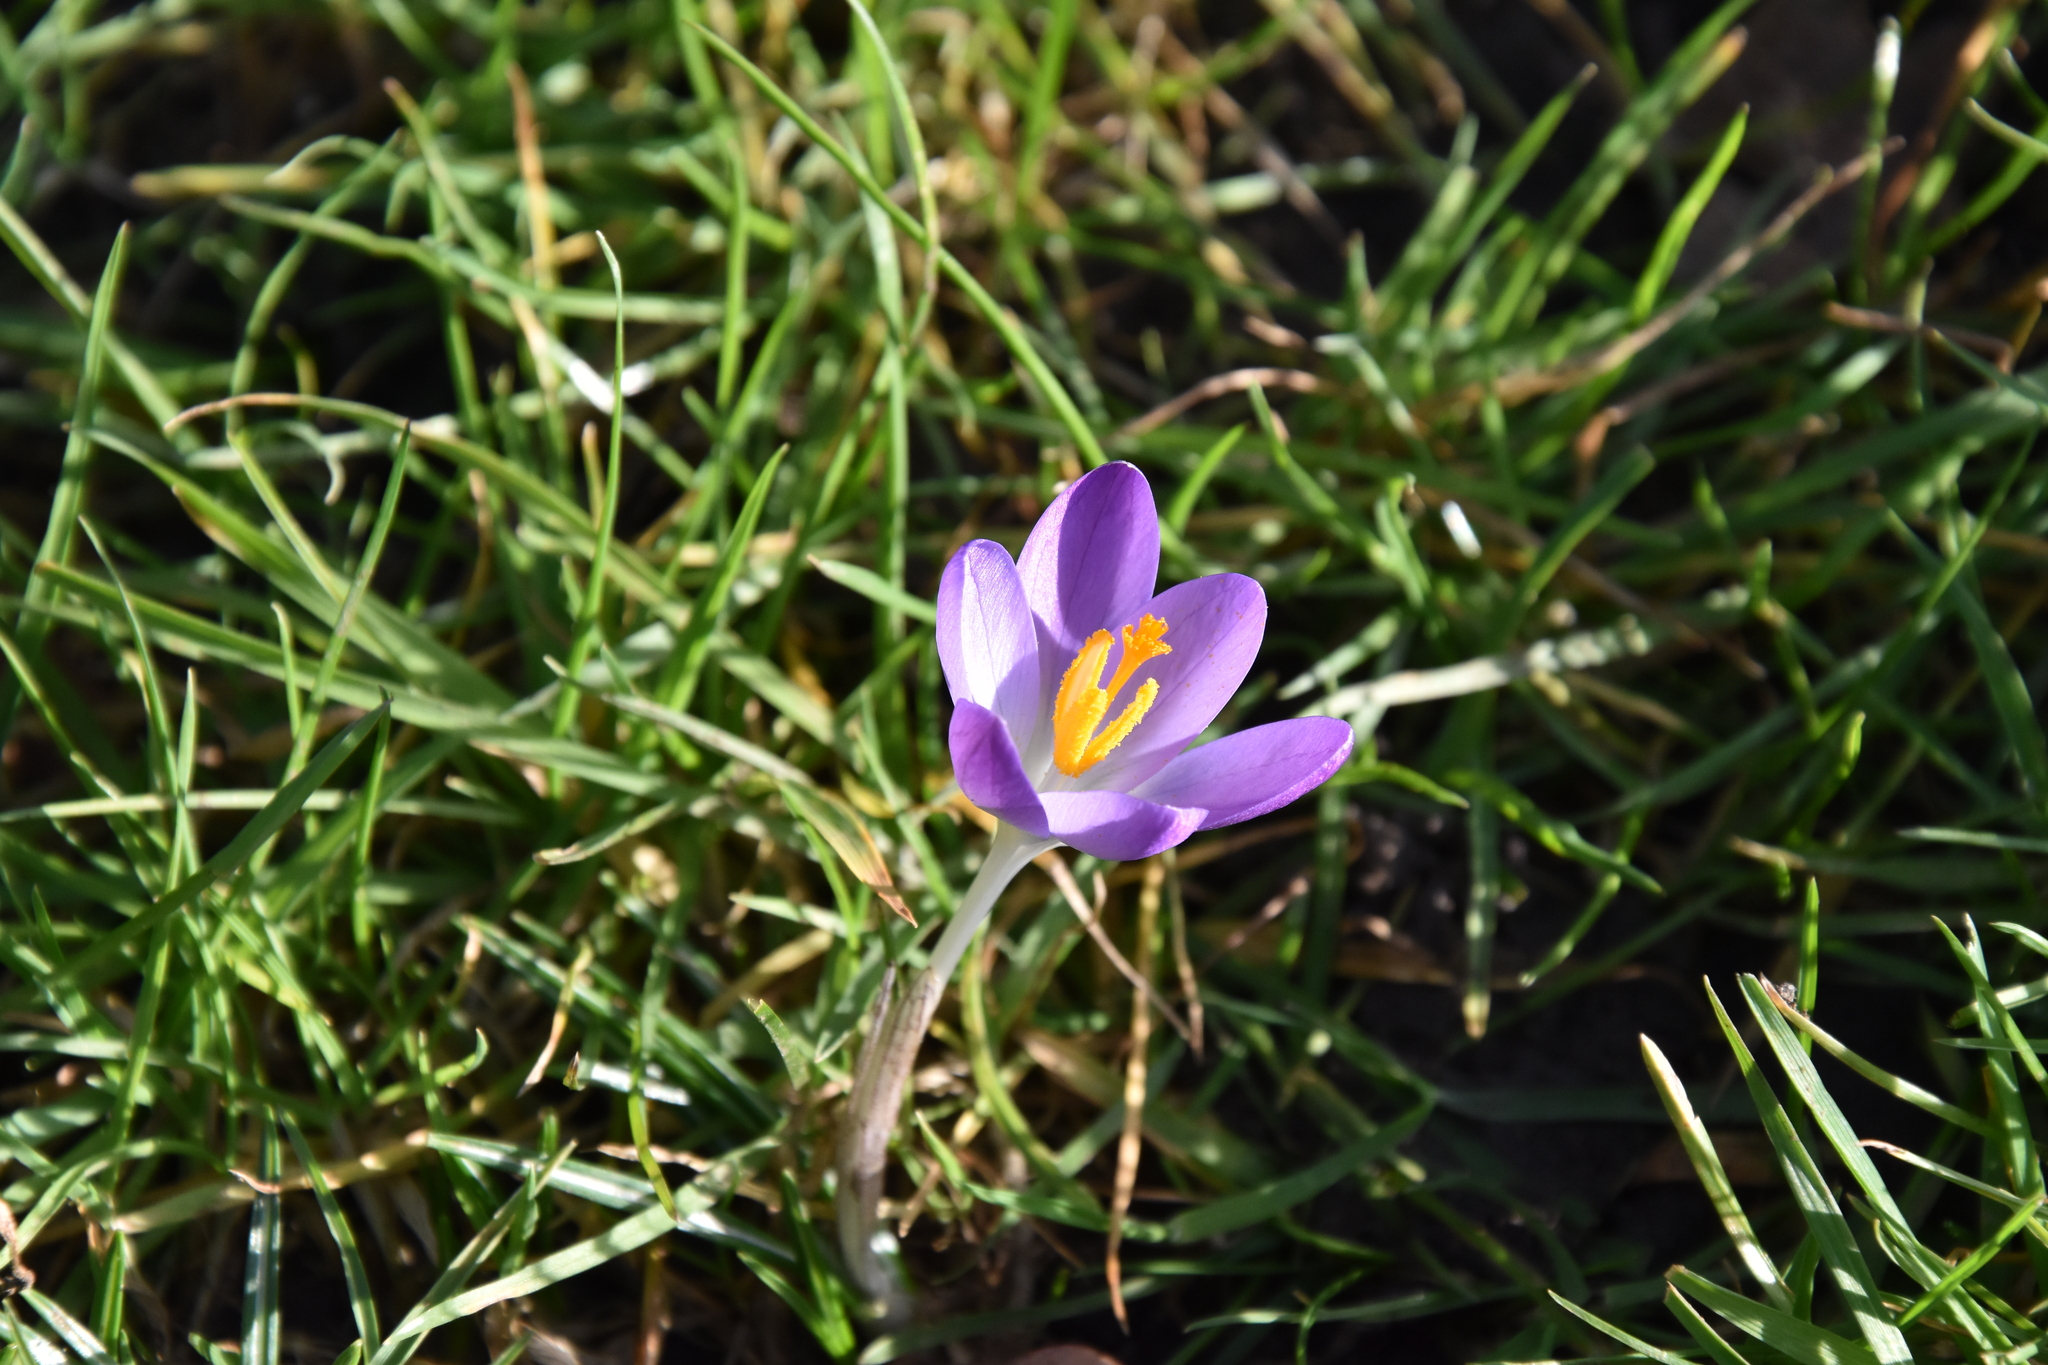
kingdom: Plantae
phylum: Tracheophyta
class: Liliopsida
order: Asparagales
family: Iridaceae
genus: Crocus
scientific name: Crocus tommasinianus
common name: Early crocus
